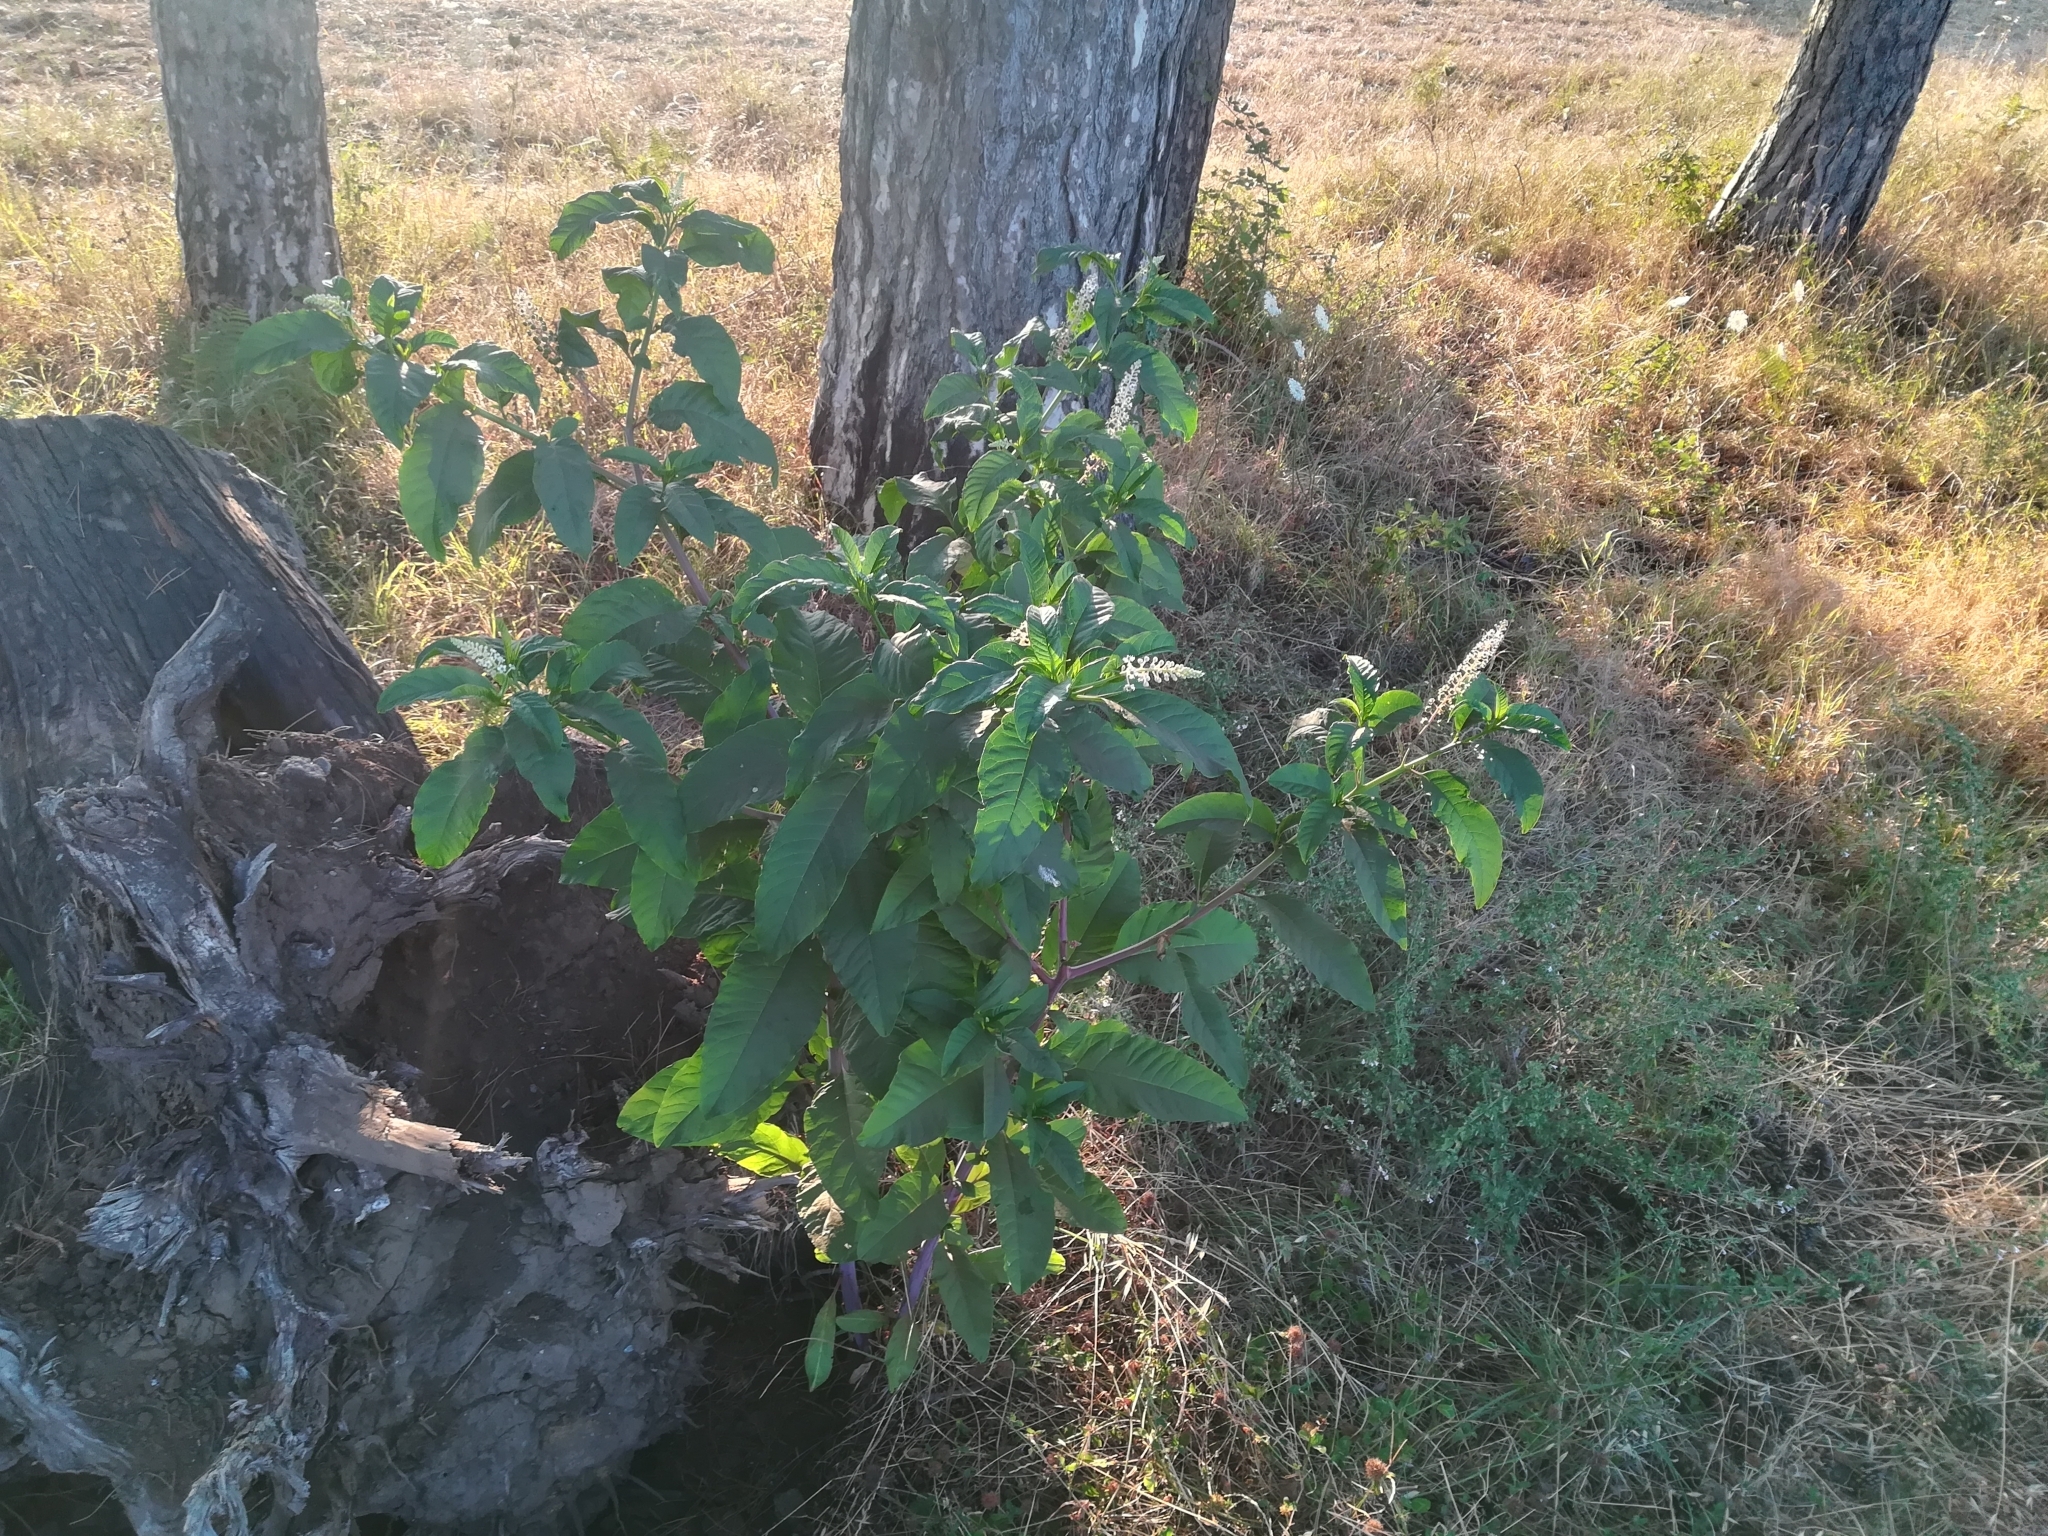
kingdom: Plantae
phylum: Tracheophyta
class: Magnoliopsida
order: Caryophyllales
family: Phytolaccaceae
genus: Phytolacca
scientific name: Phytolacca americana
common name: American pokeweed
